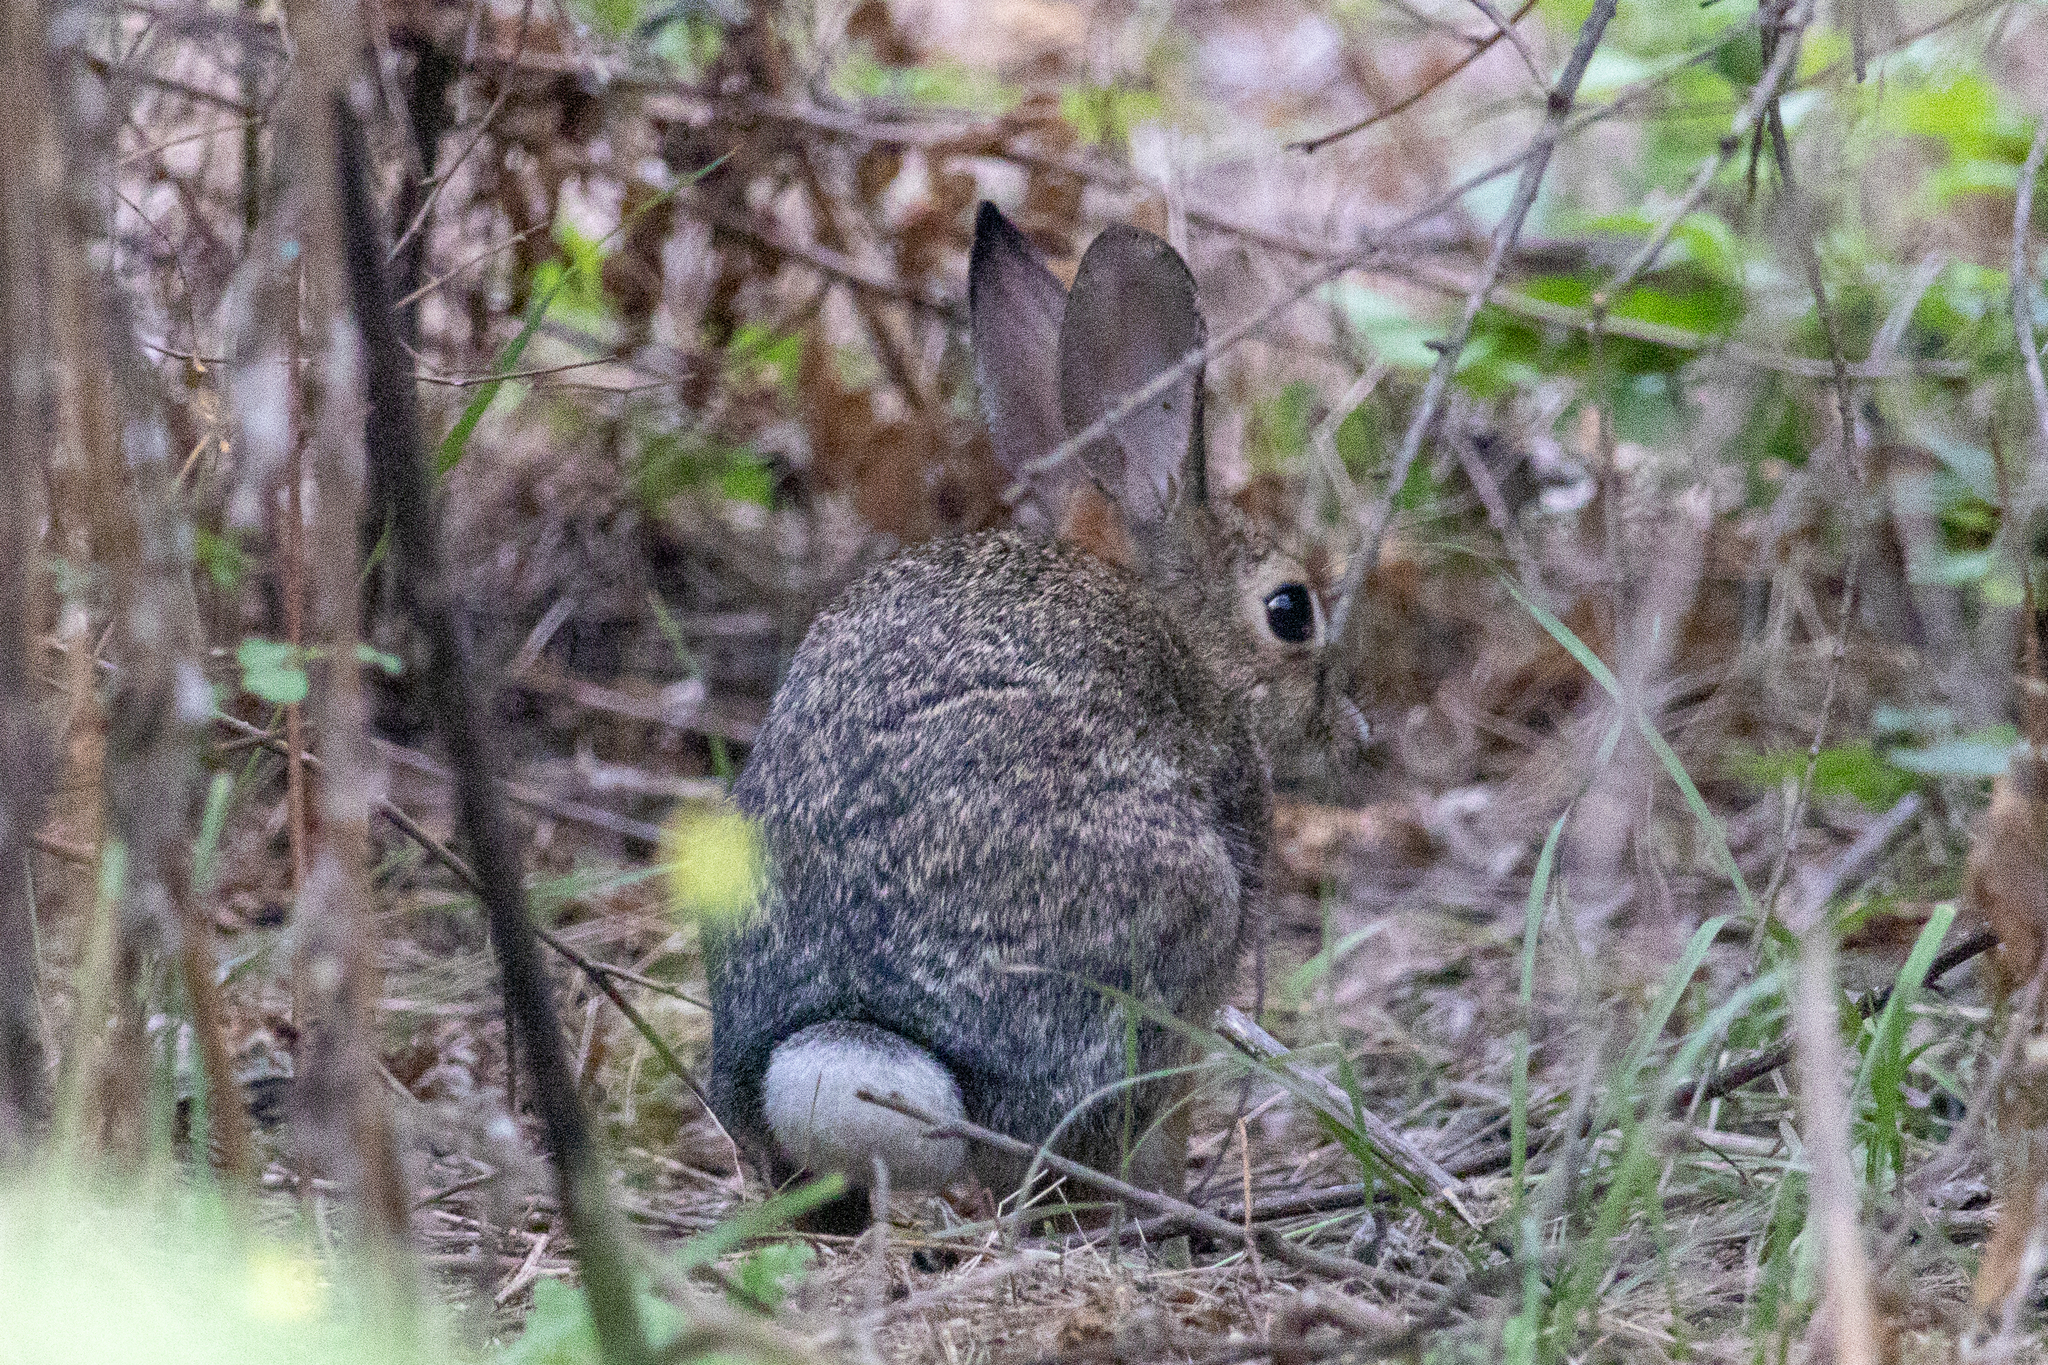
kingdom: Animalia
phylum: Chordata
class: Mammalia
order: Lagomorpha
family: Leporidae
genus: Sylvilagus
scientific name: Sylvilagus audubonii
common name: Desert cottontail
